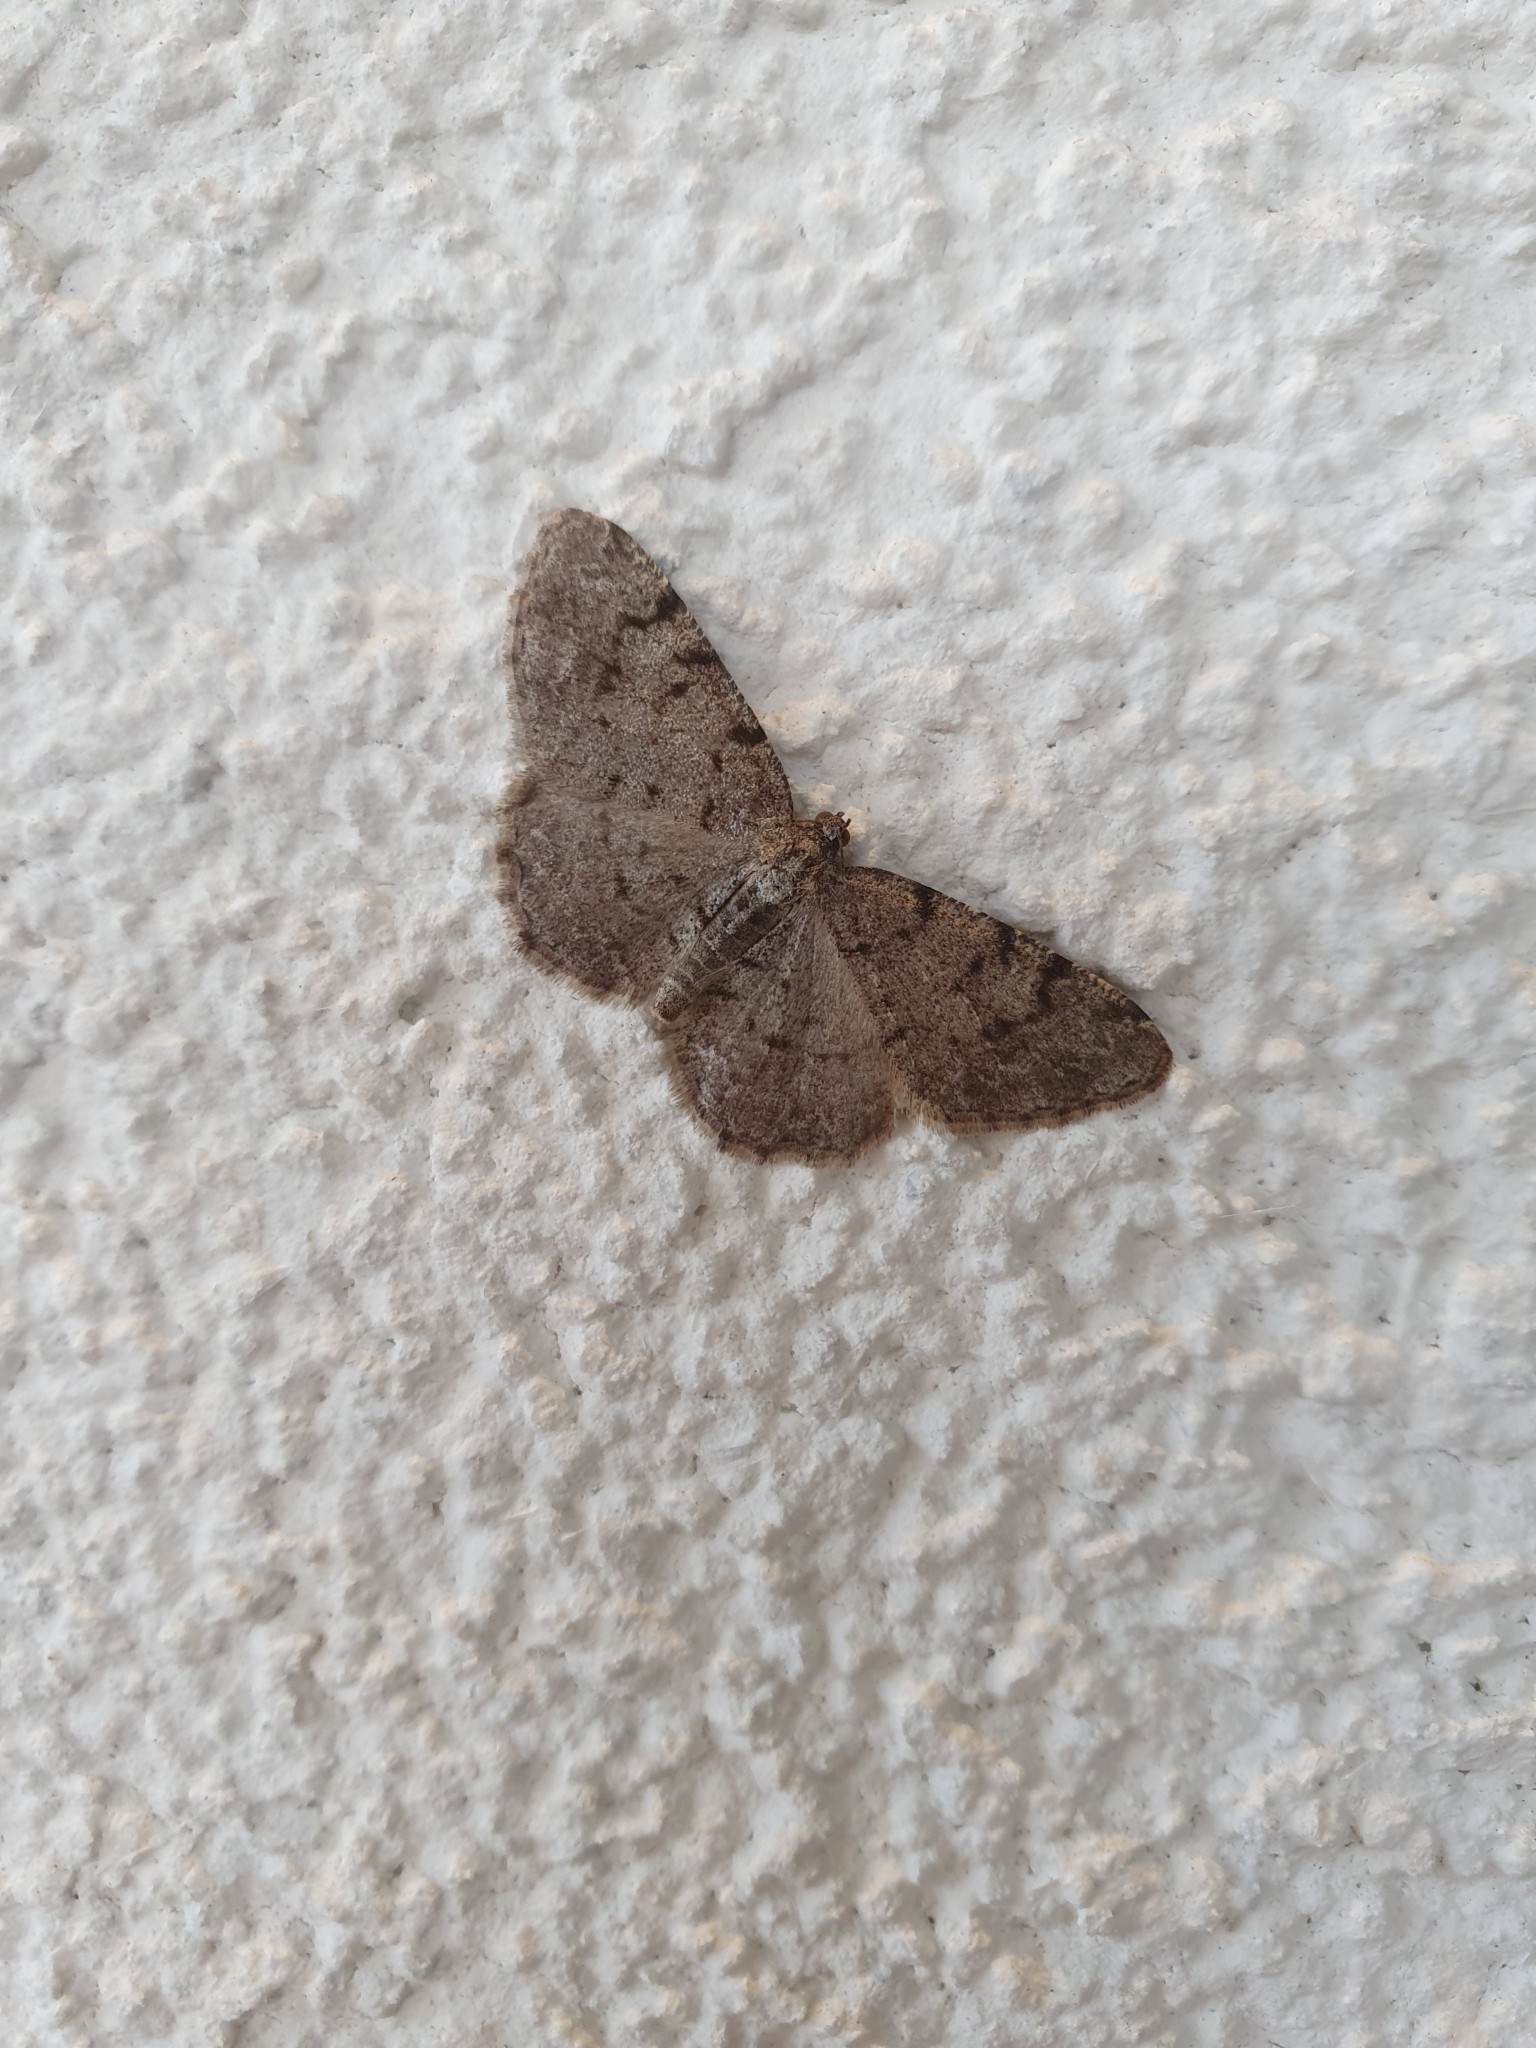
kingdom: Animalia
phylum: Arthropoda
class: Insecta
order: Lepidoptera
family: Geometridae
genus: Aethalura
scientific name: Aethalura punctulata
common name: Grey birch
